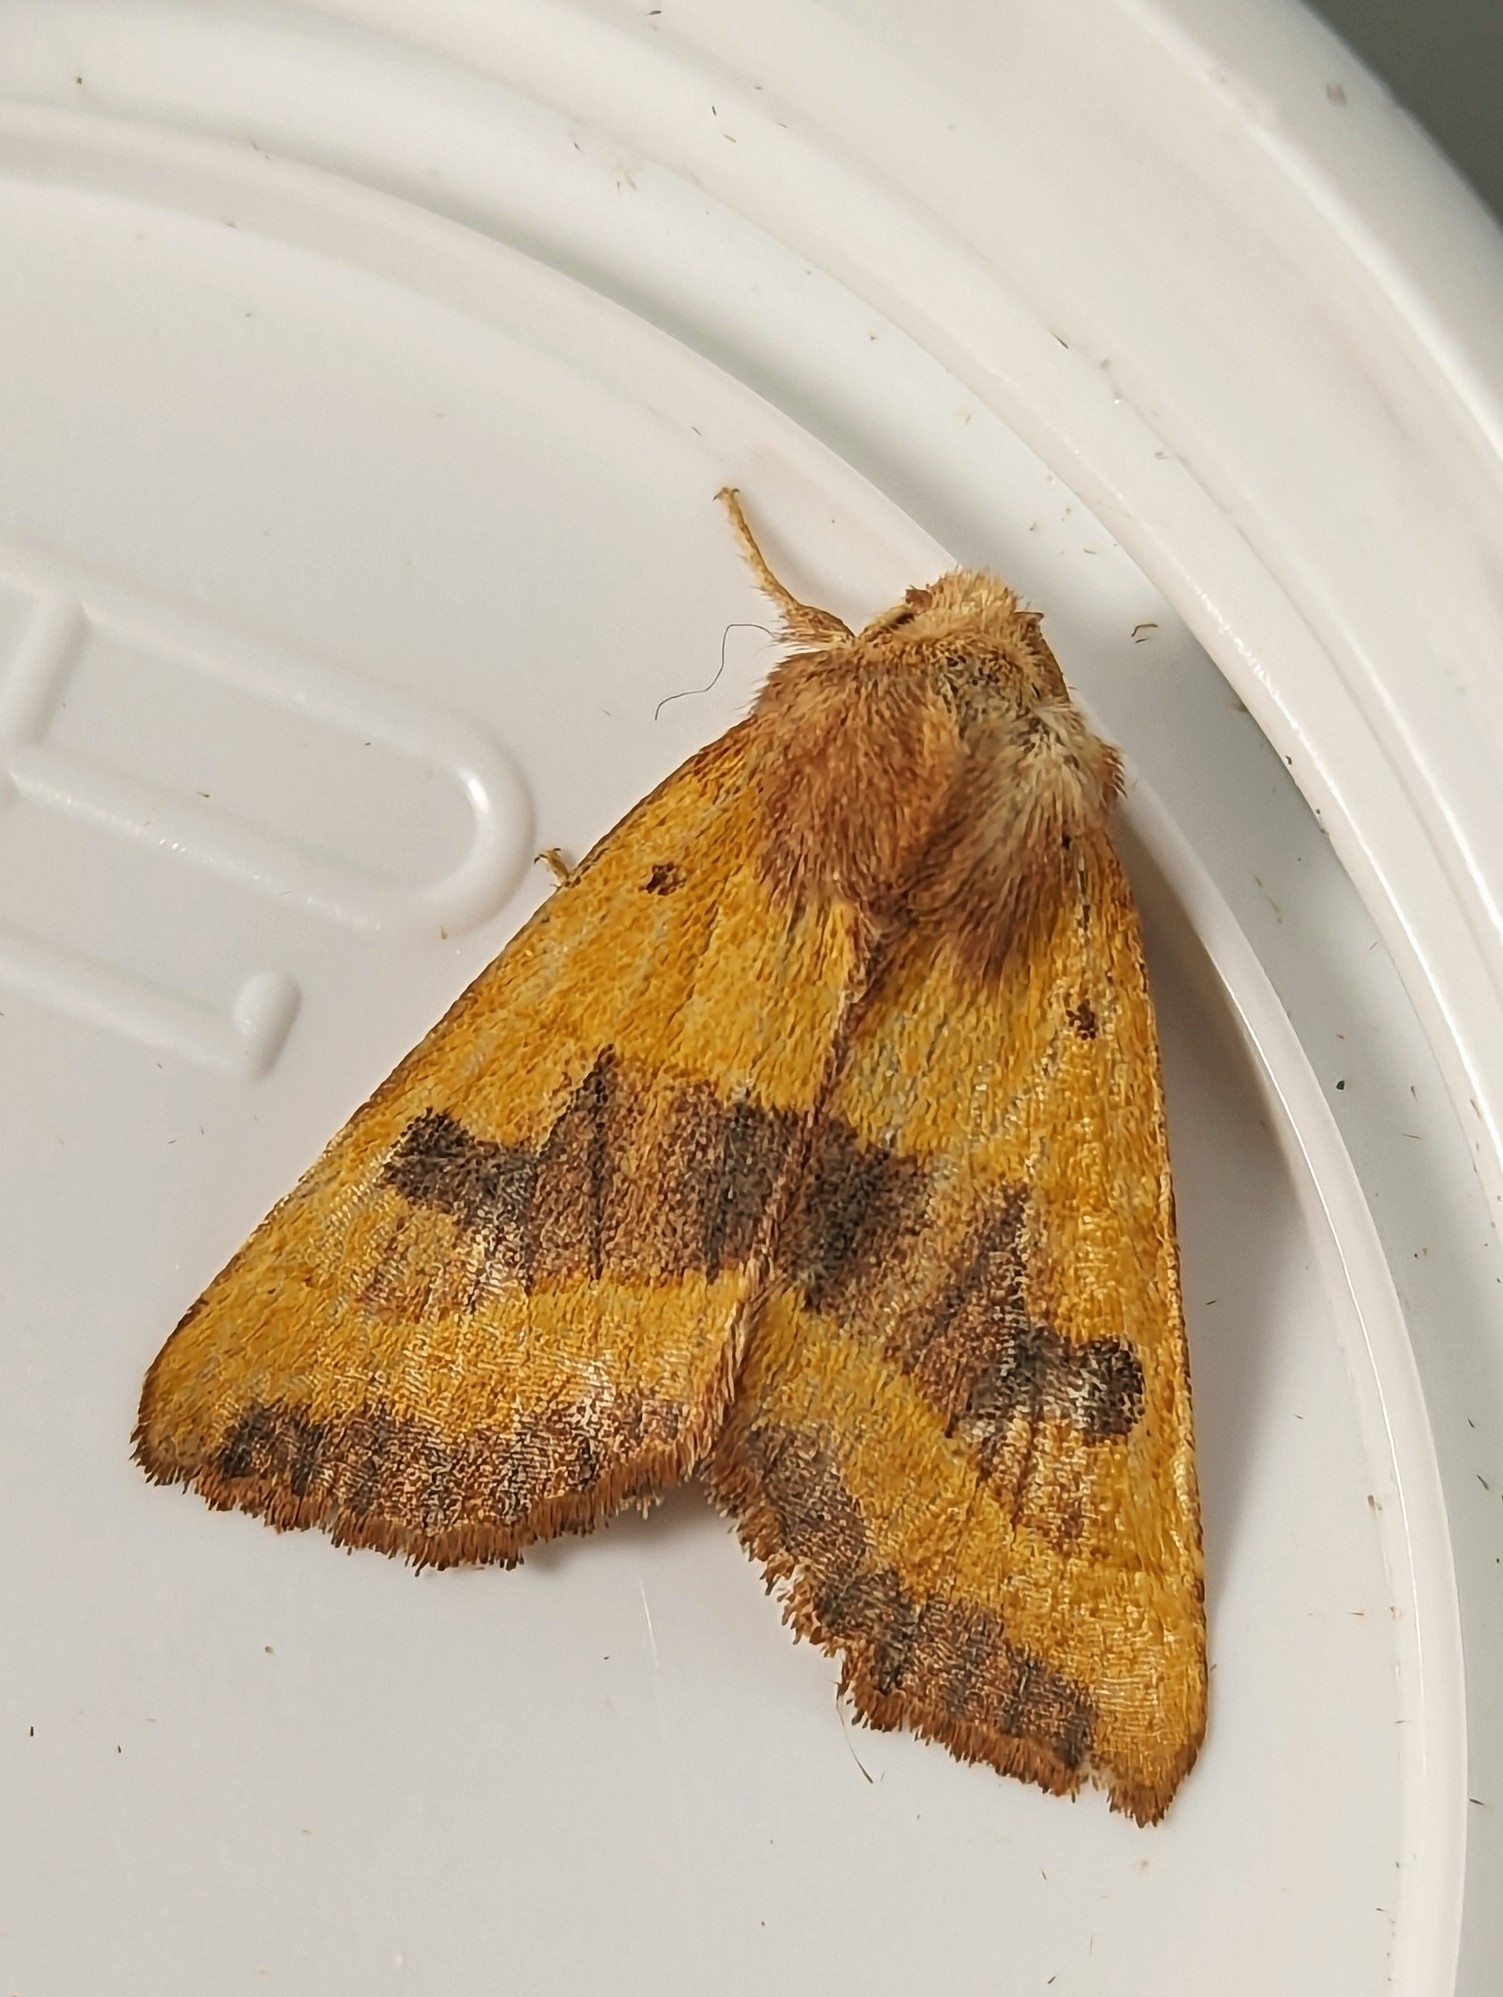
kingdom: Animalia
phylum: Arthropoda
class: Insecta
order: Lepidoptera
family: Noctuidae
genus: Atethmia
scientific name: Atethmia centrago
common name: Centre-barred sallow
